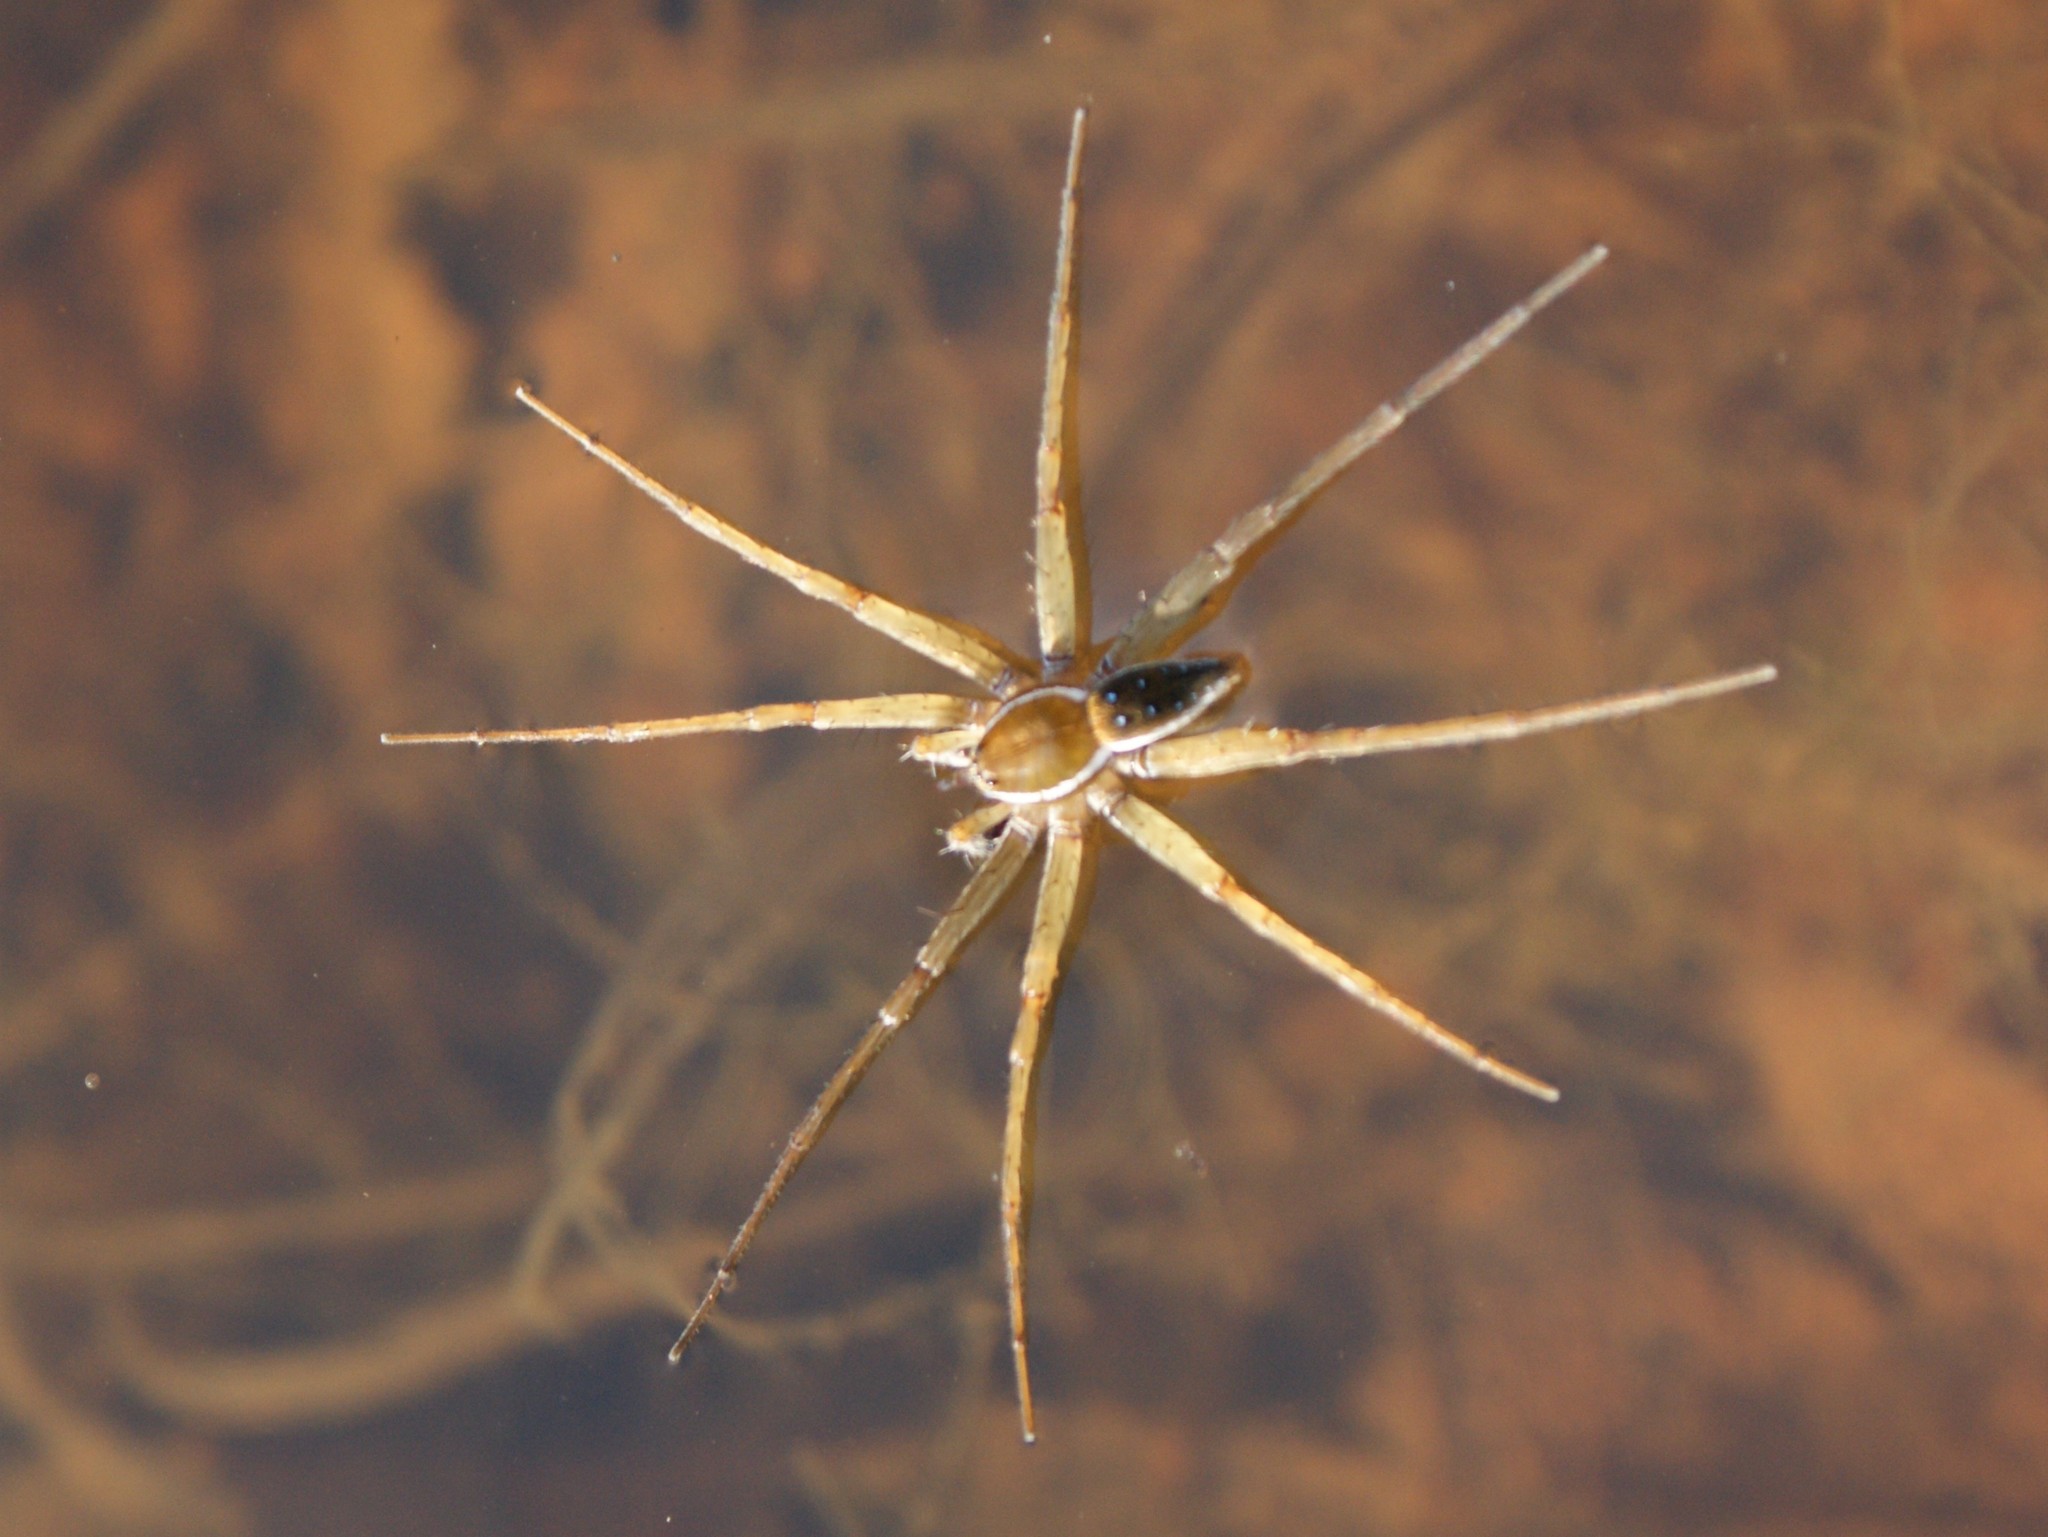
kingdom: Animalia
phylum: Arthropoda
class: Arachnida
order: Araneae
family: Pisauridae
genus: Dolomedes
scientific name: Dolomedes triton
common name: Six-spotted fishing spider
